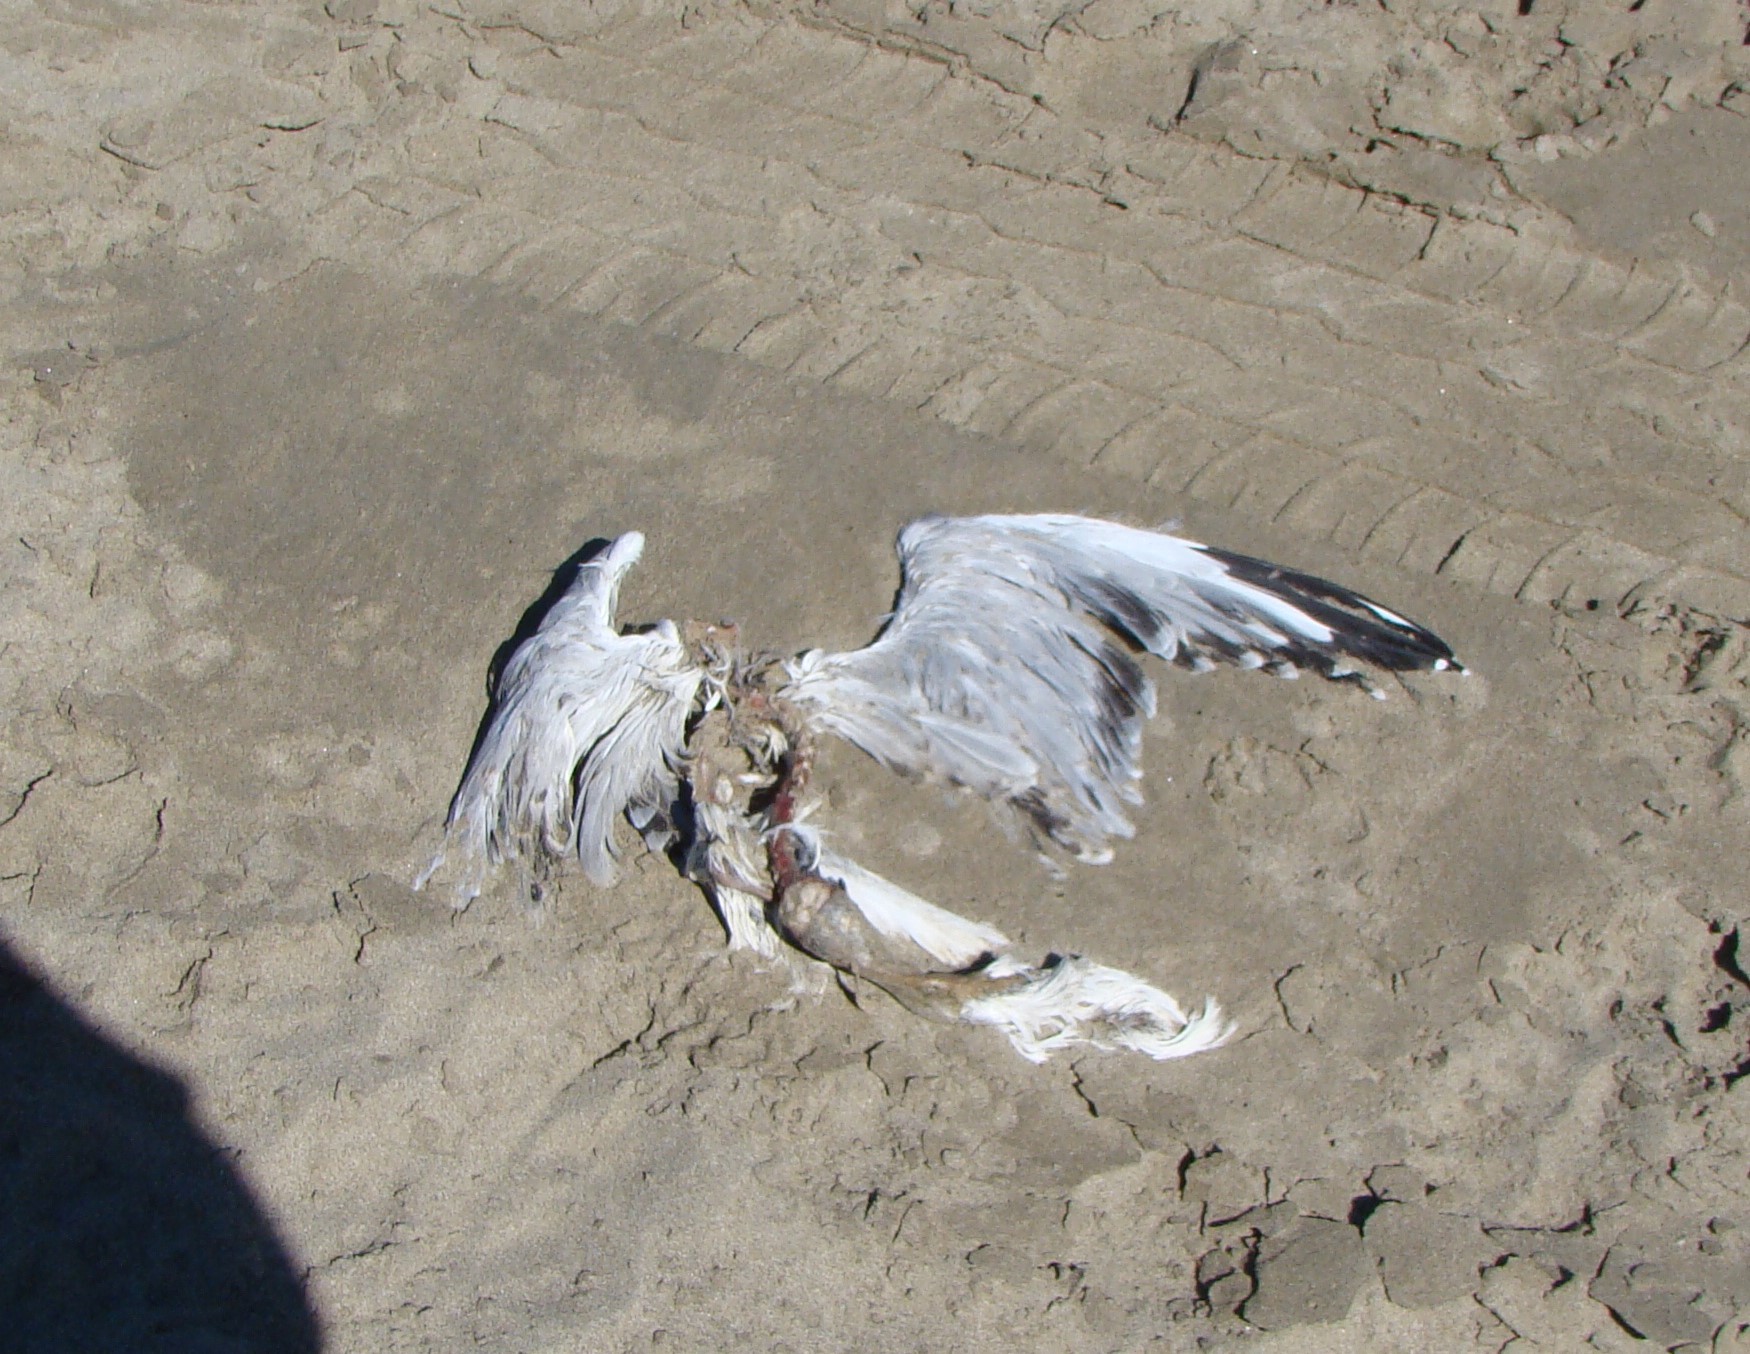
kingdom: Animalia
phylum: Chordata
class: Aves
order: Charadriiformes
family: Laridae
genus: Chroicocephalus
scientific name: Chroicocephalus novaehollandiae
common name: Silver gull
